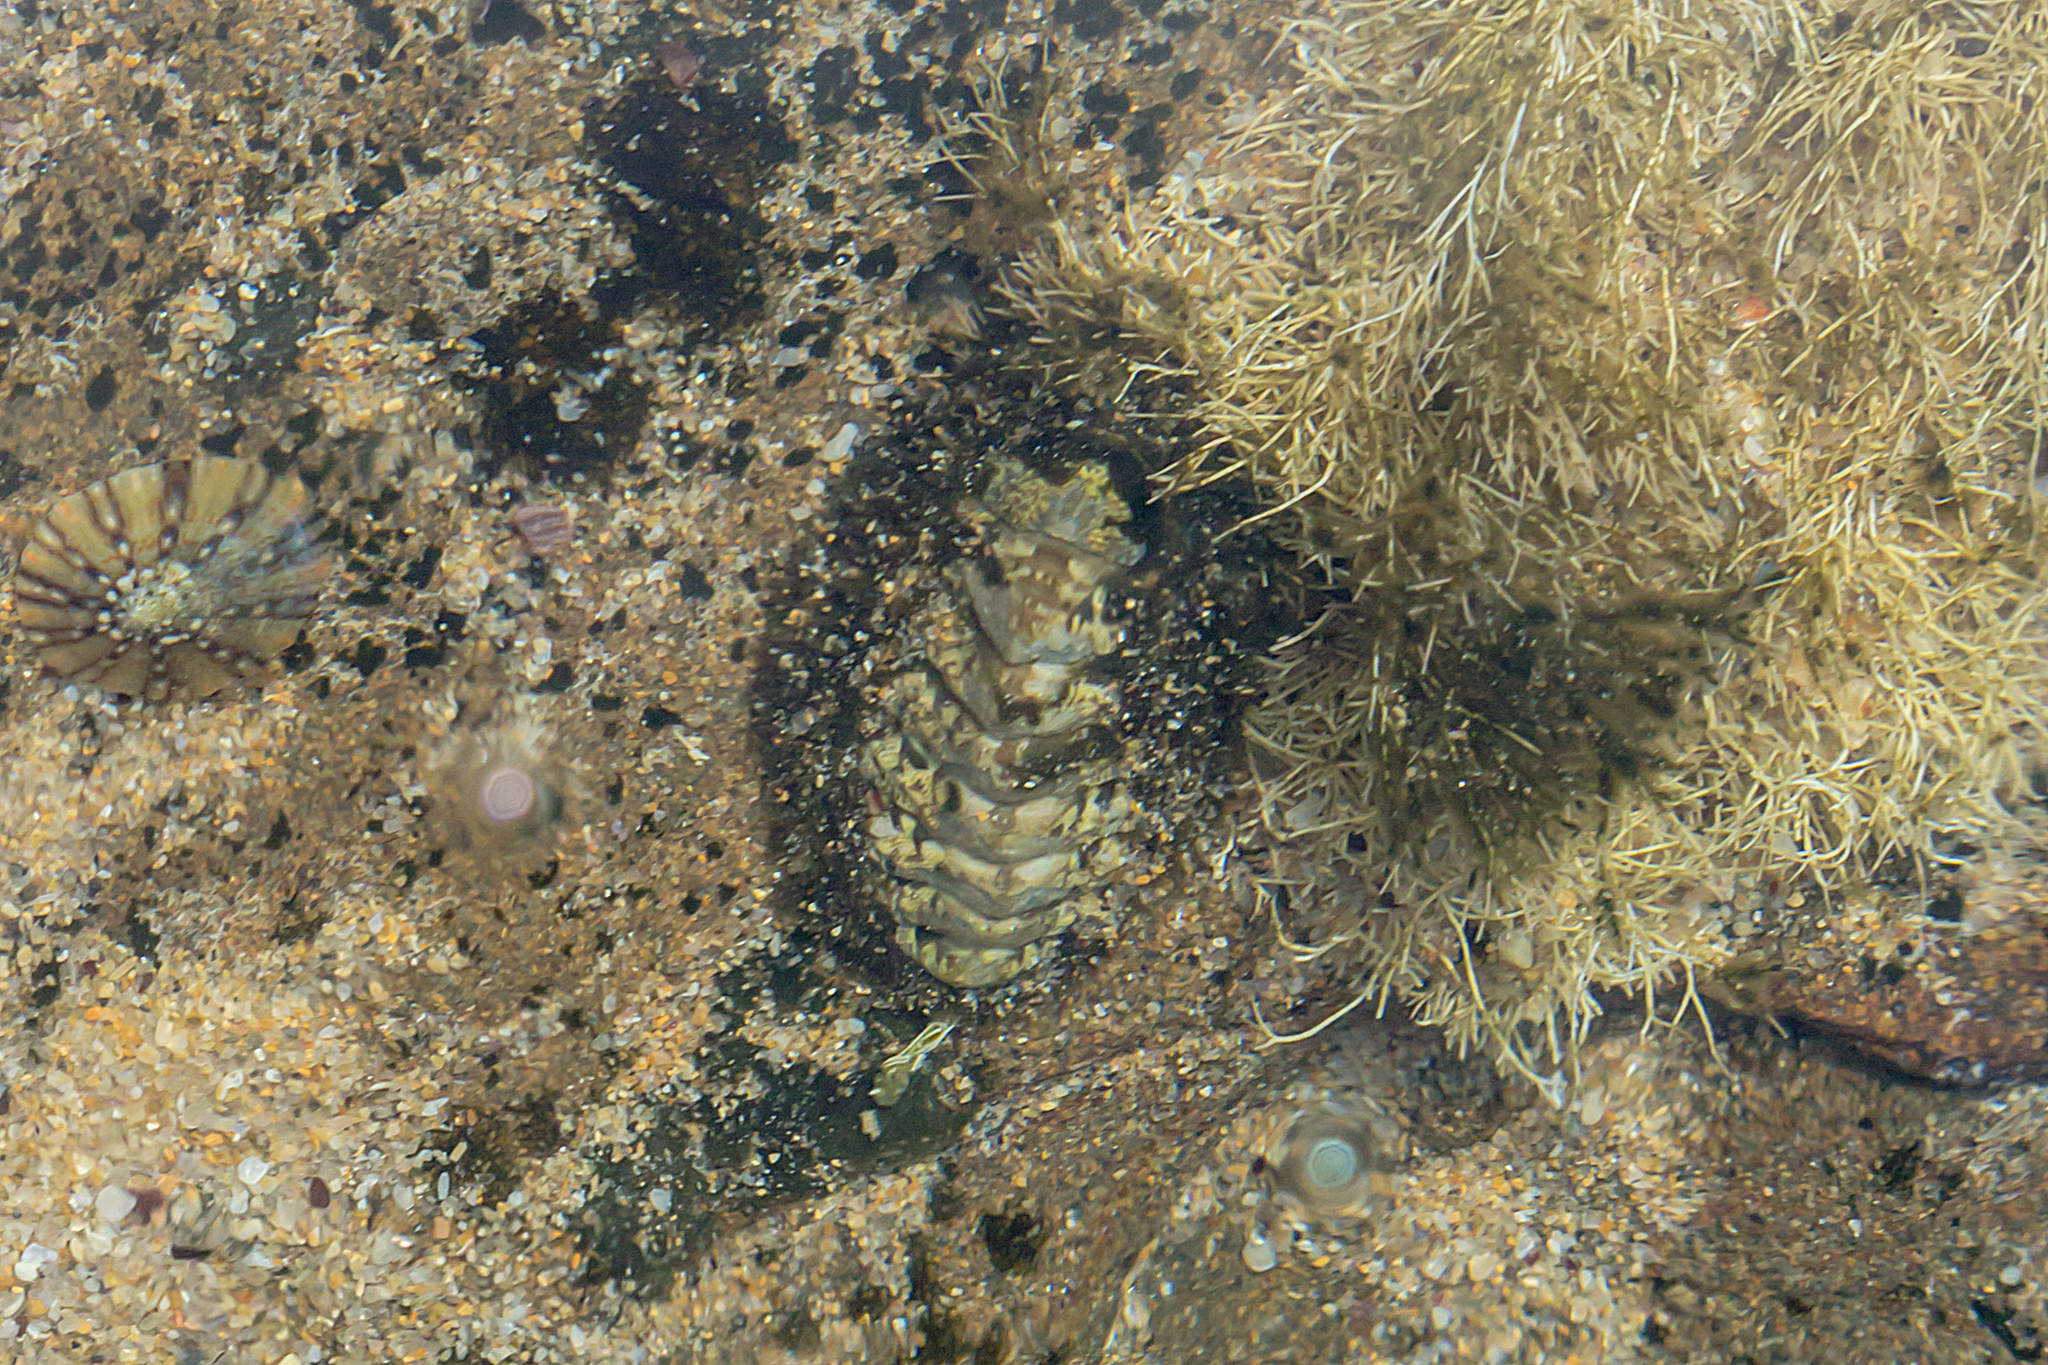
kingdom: Animalia
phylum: Mollusca
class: Polyplacophora
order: Chitonida
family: Mopaliidae
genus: Plaxiphora
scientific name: Plaxiphora albida
